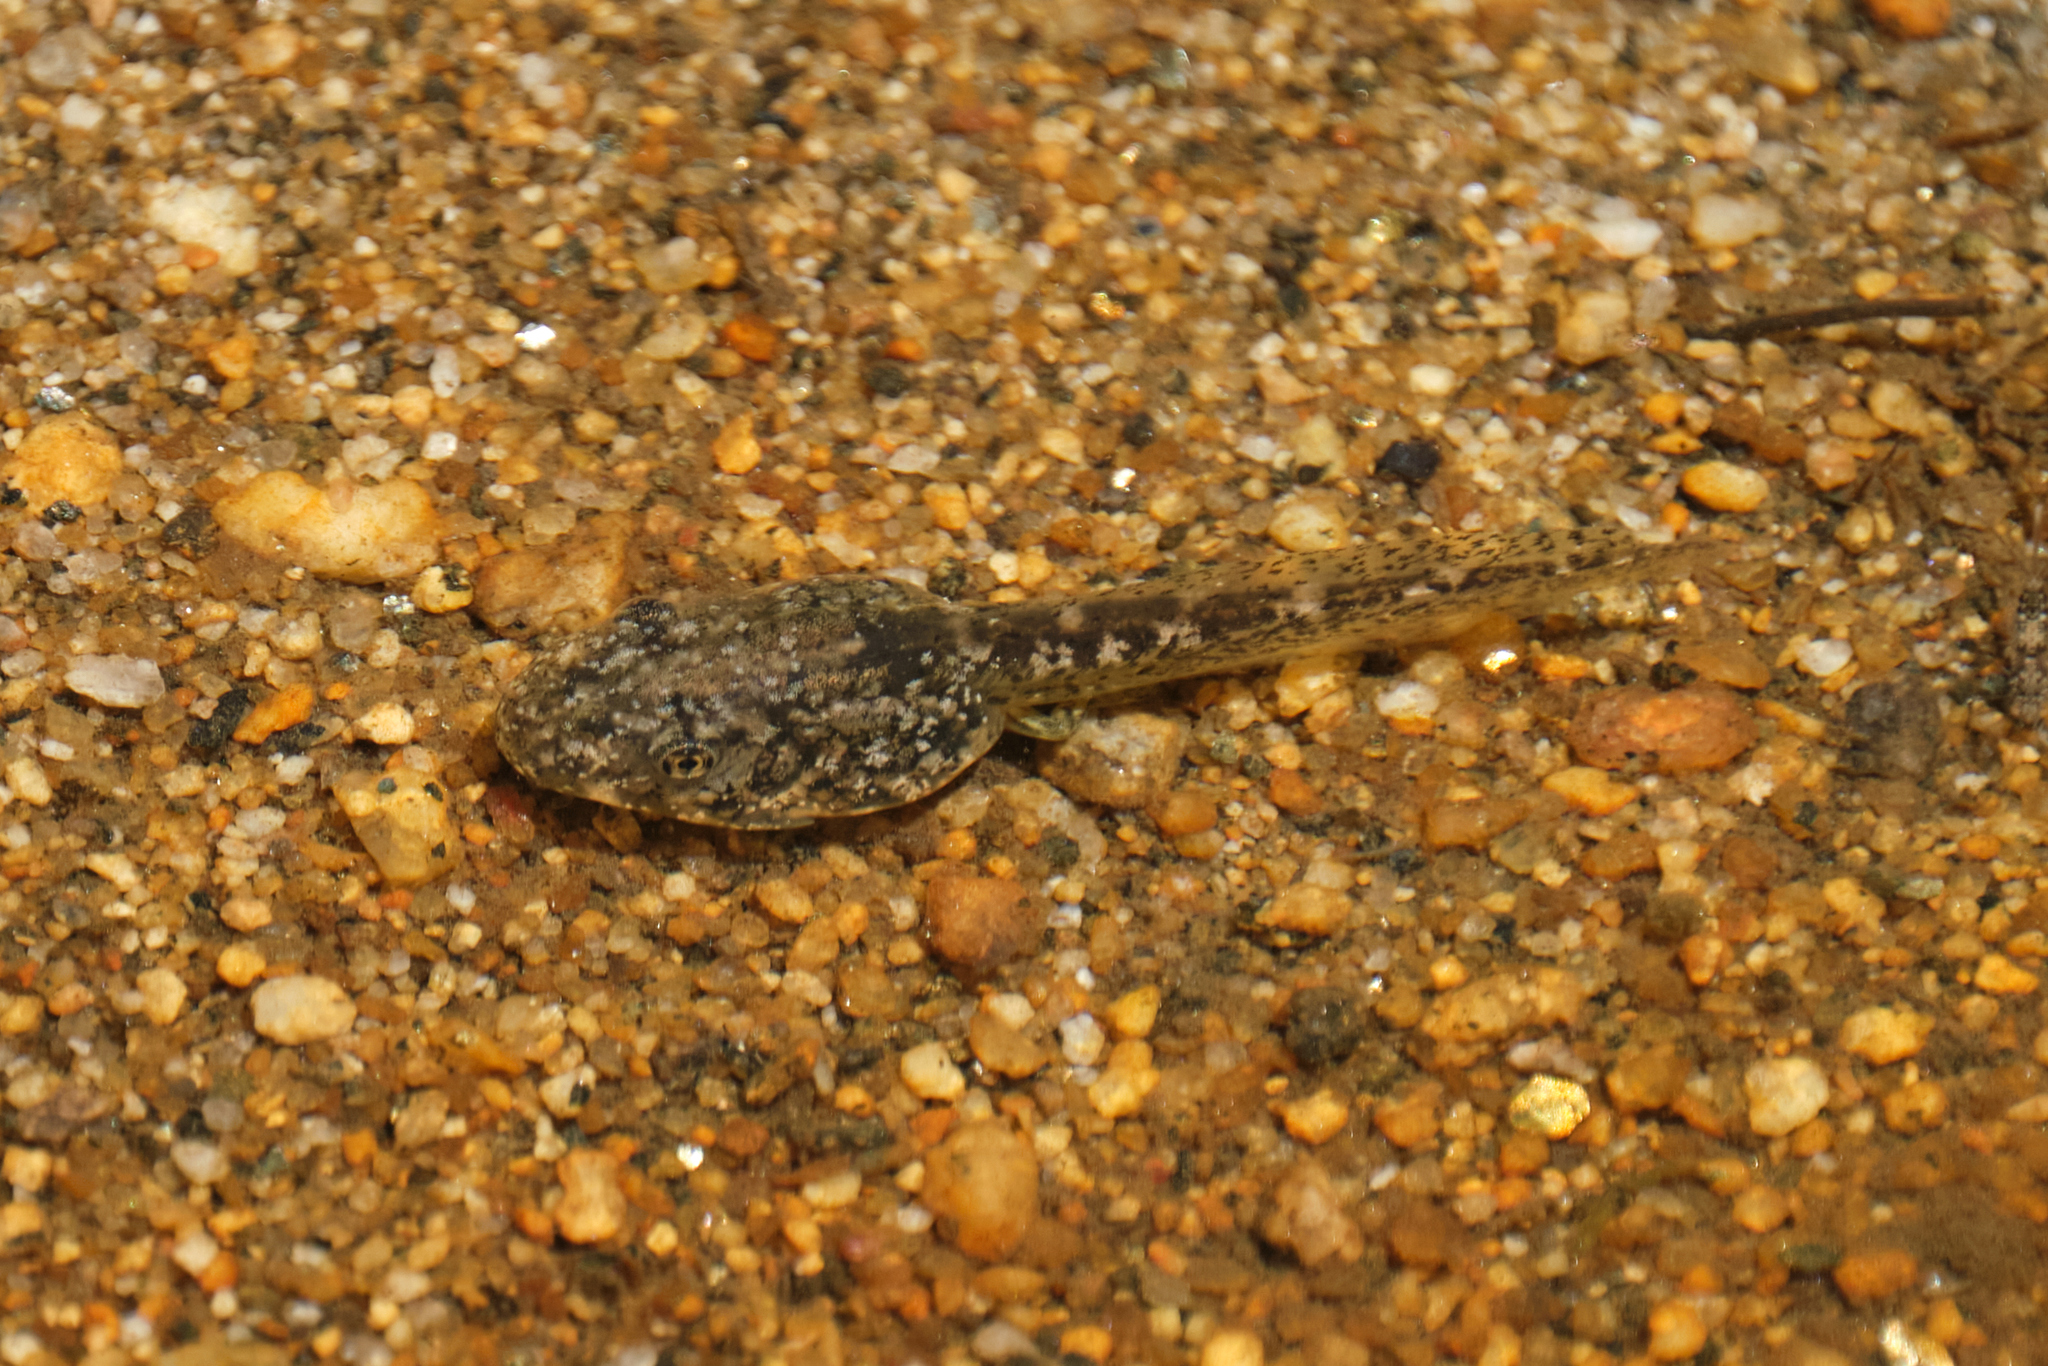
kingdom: Animalia
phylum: Chordata
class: Amphibia
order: Anura
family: Hylidae
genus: Pseudacris
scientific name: Pseudacris cadaverina
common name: California chorus frog
